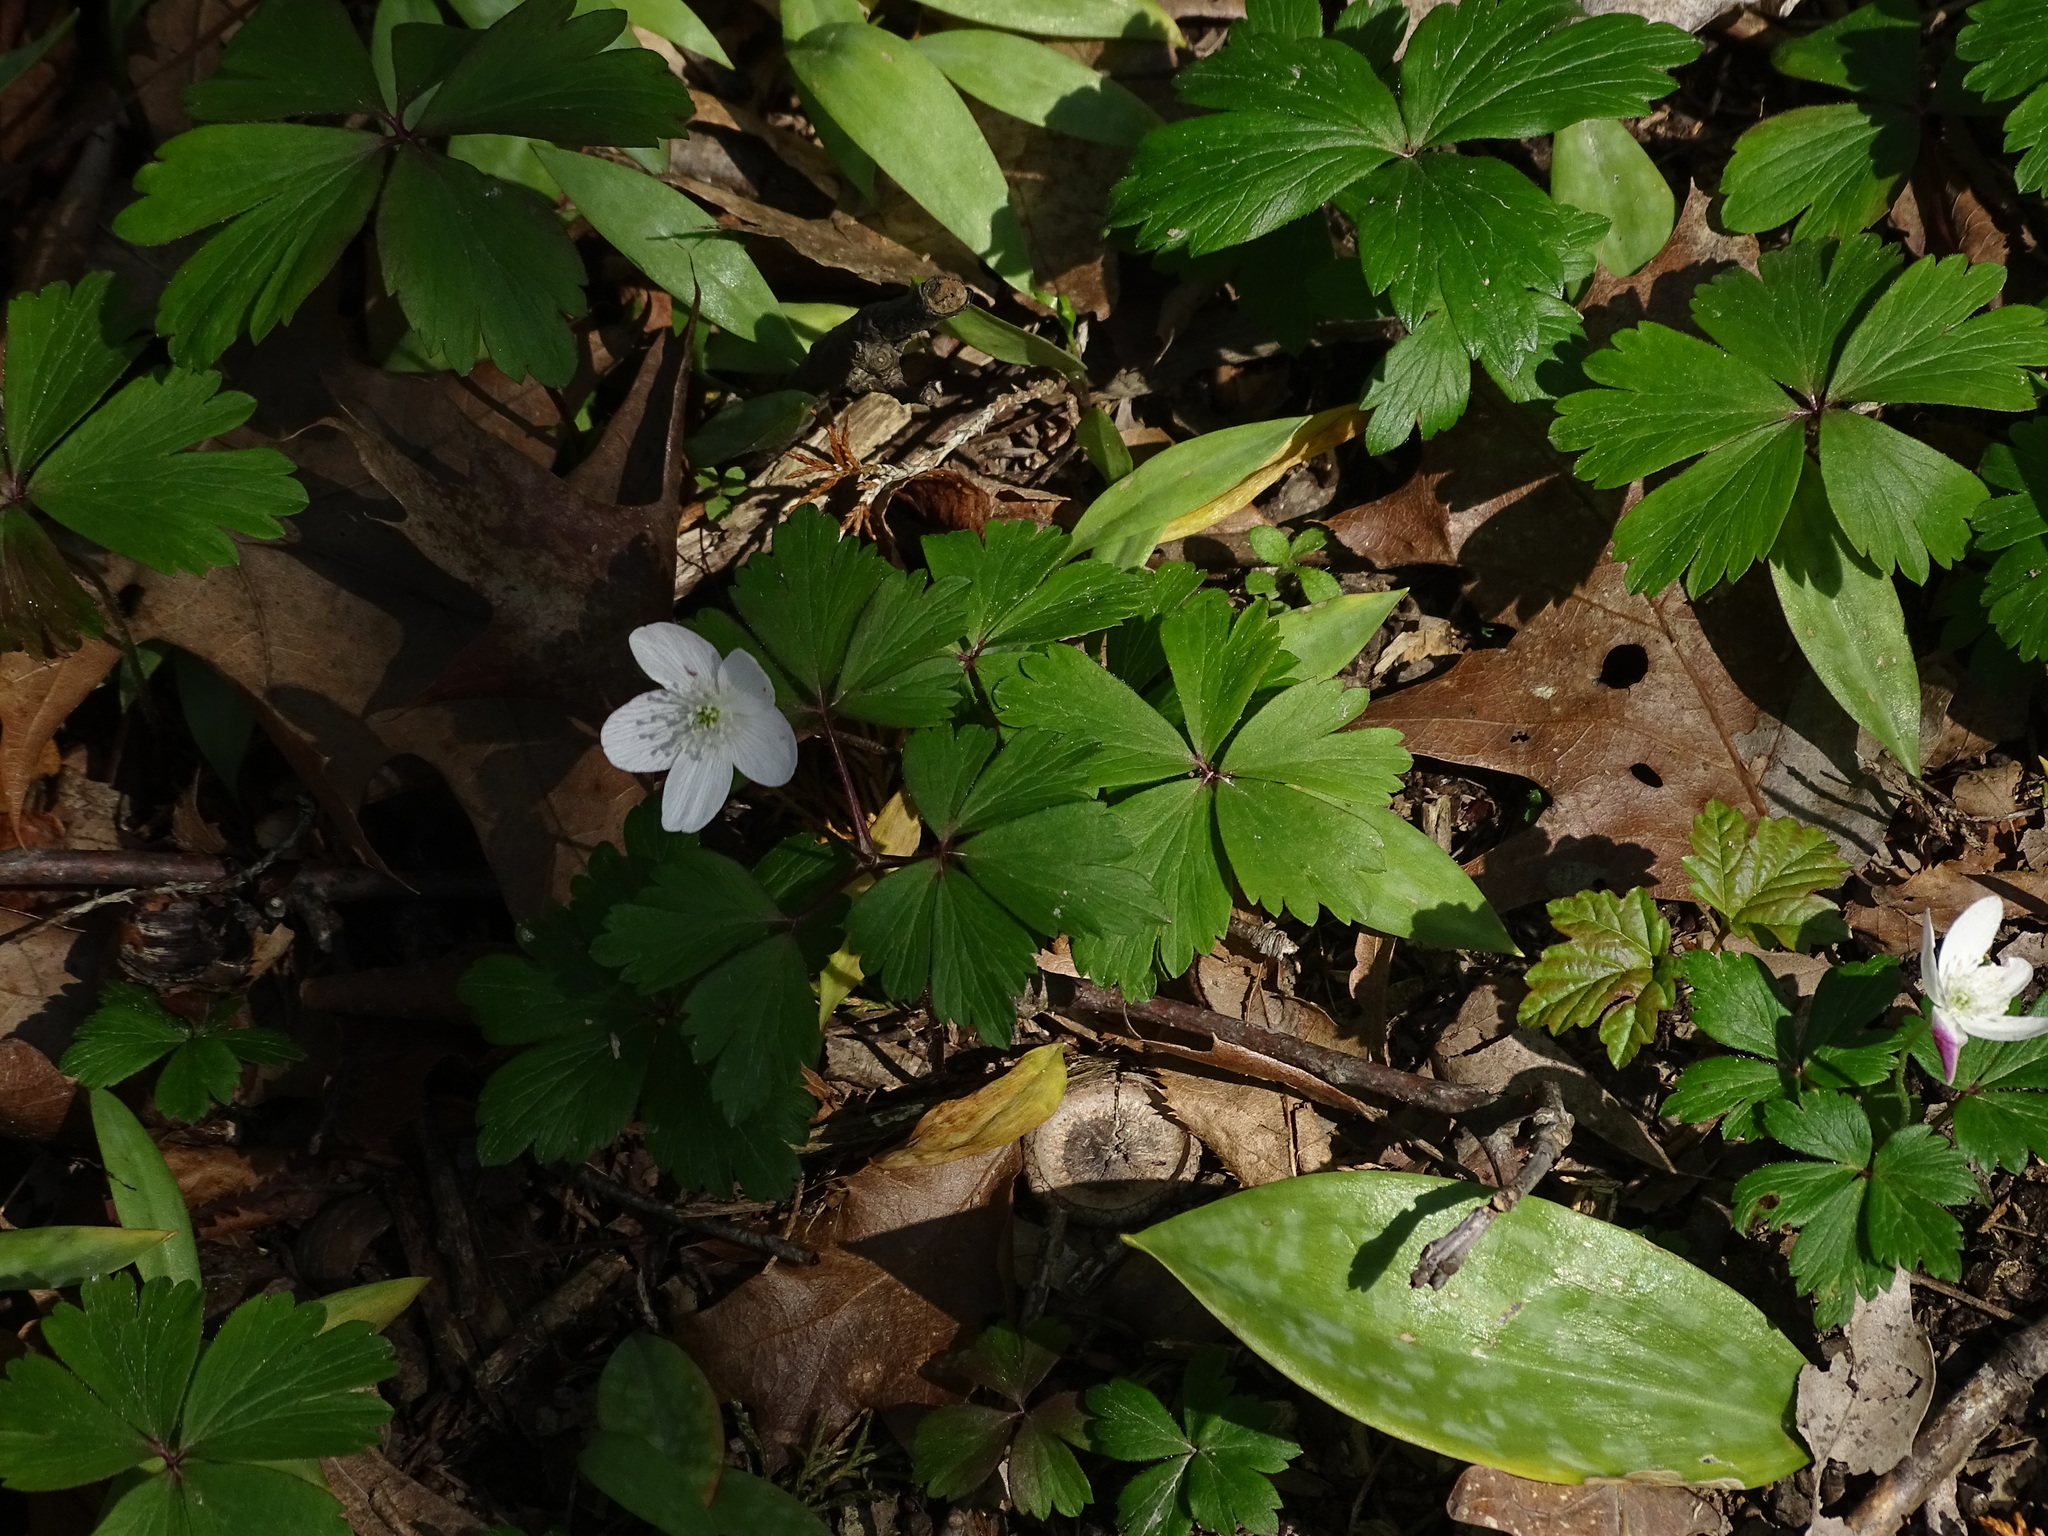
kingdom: Plantae
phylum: Tracheophyta
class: Magnoliopsida
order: Ranunculales
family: Ranunculaceae
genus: Anemone
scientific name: Anemone quinquefolia
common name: Wood anemone
